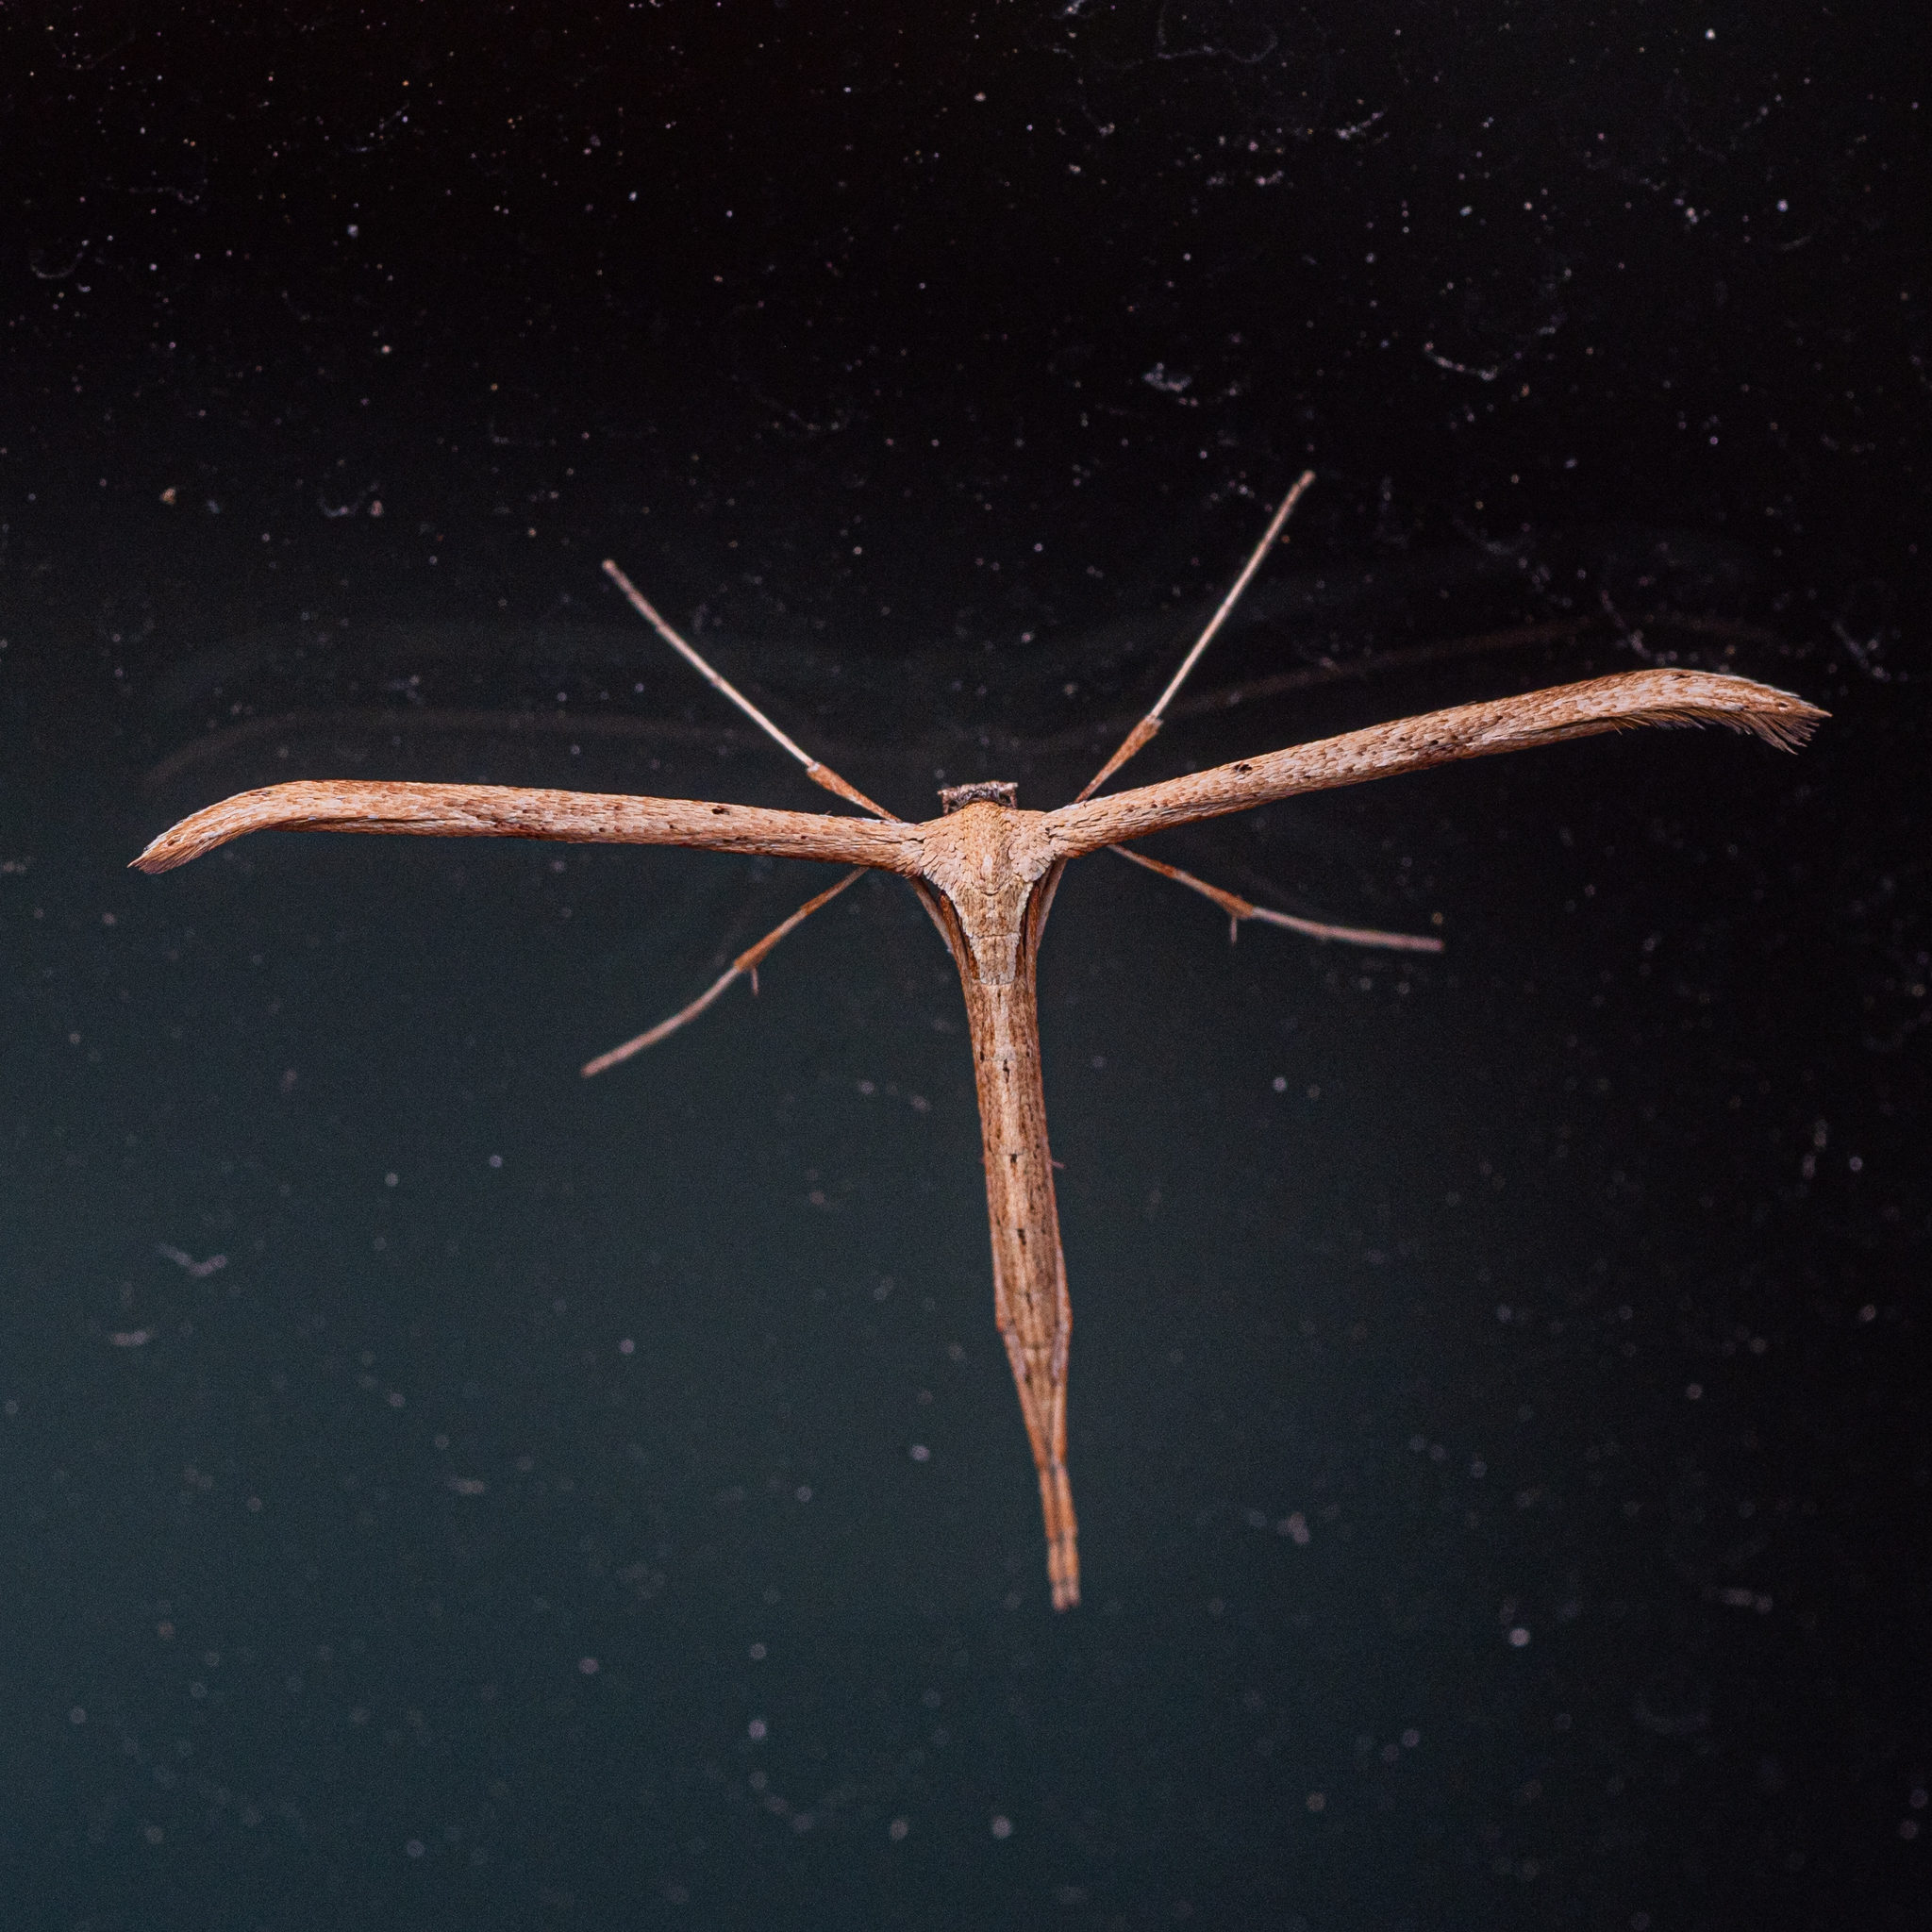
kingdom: Animalia
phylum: Arthropoda
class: Insecta
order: Lepidoptera
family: Pterophoridae
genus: Emmelina
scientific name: Emmelina monodactyla
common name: Common plume
